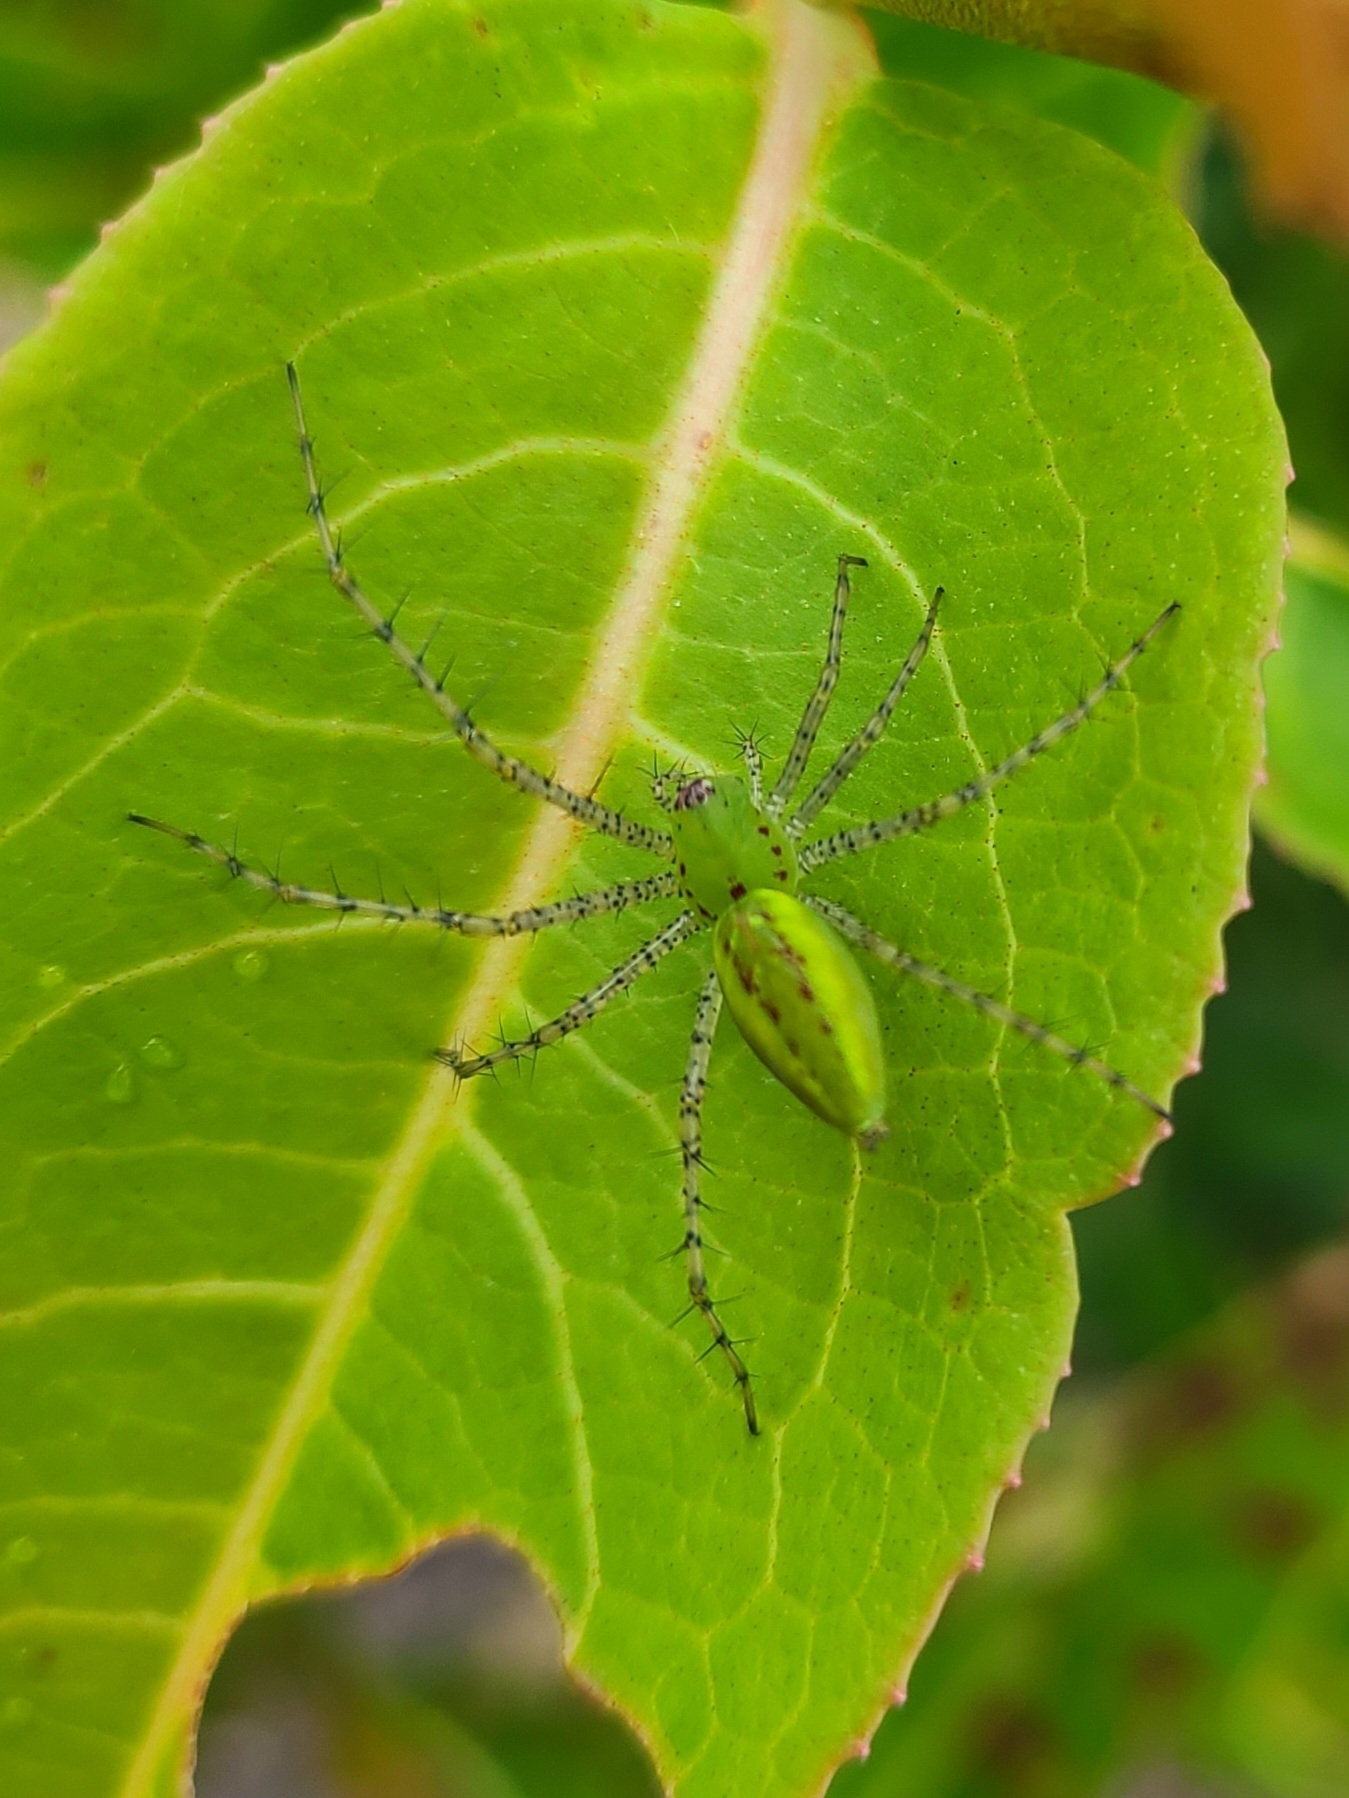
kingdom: Animalia
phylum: Arthropoda
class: Arachnida
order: Araneae
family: Oxyopidae
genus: Peucetia
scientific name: Peucetia viridans
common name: Lynx spiders
